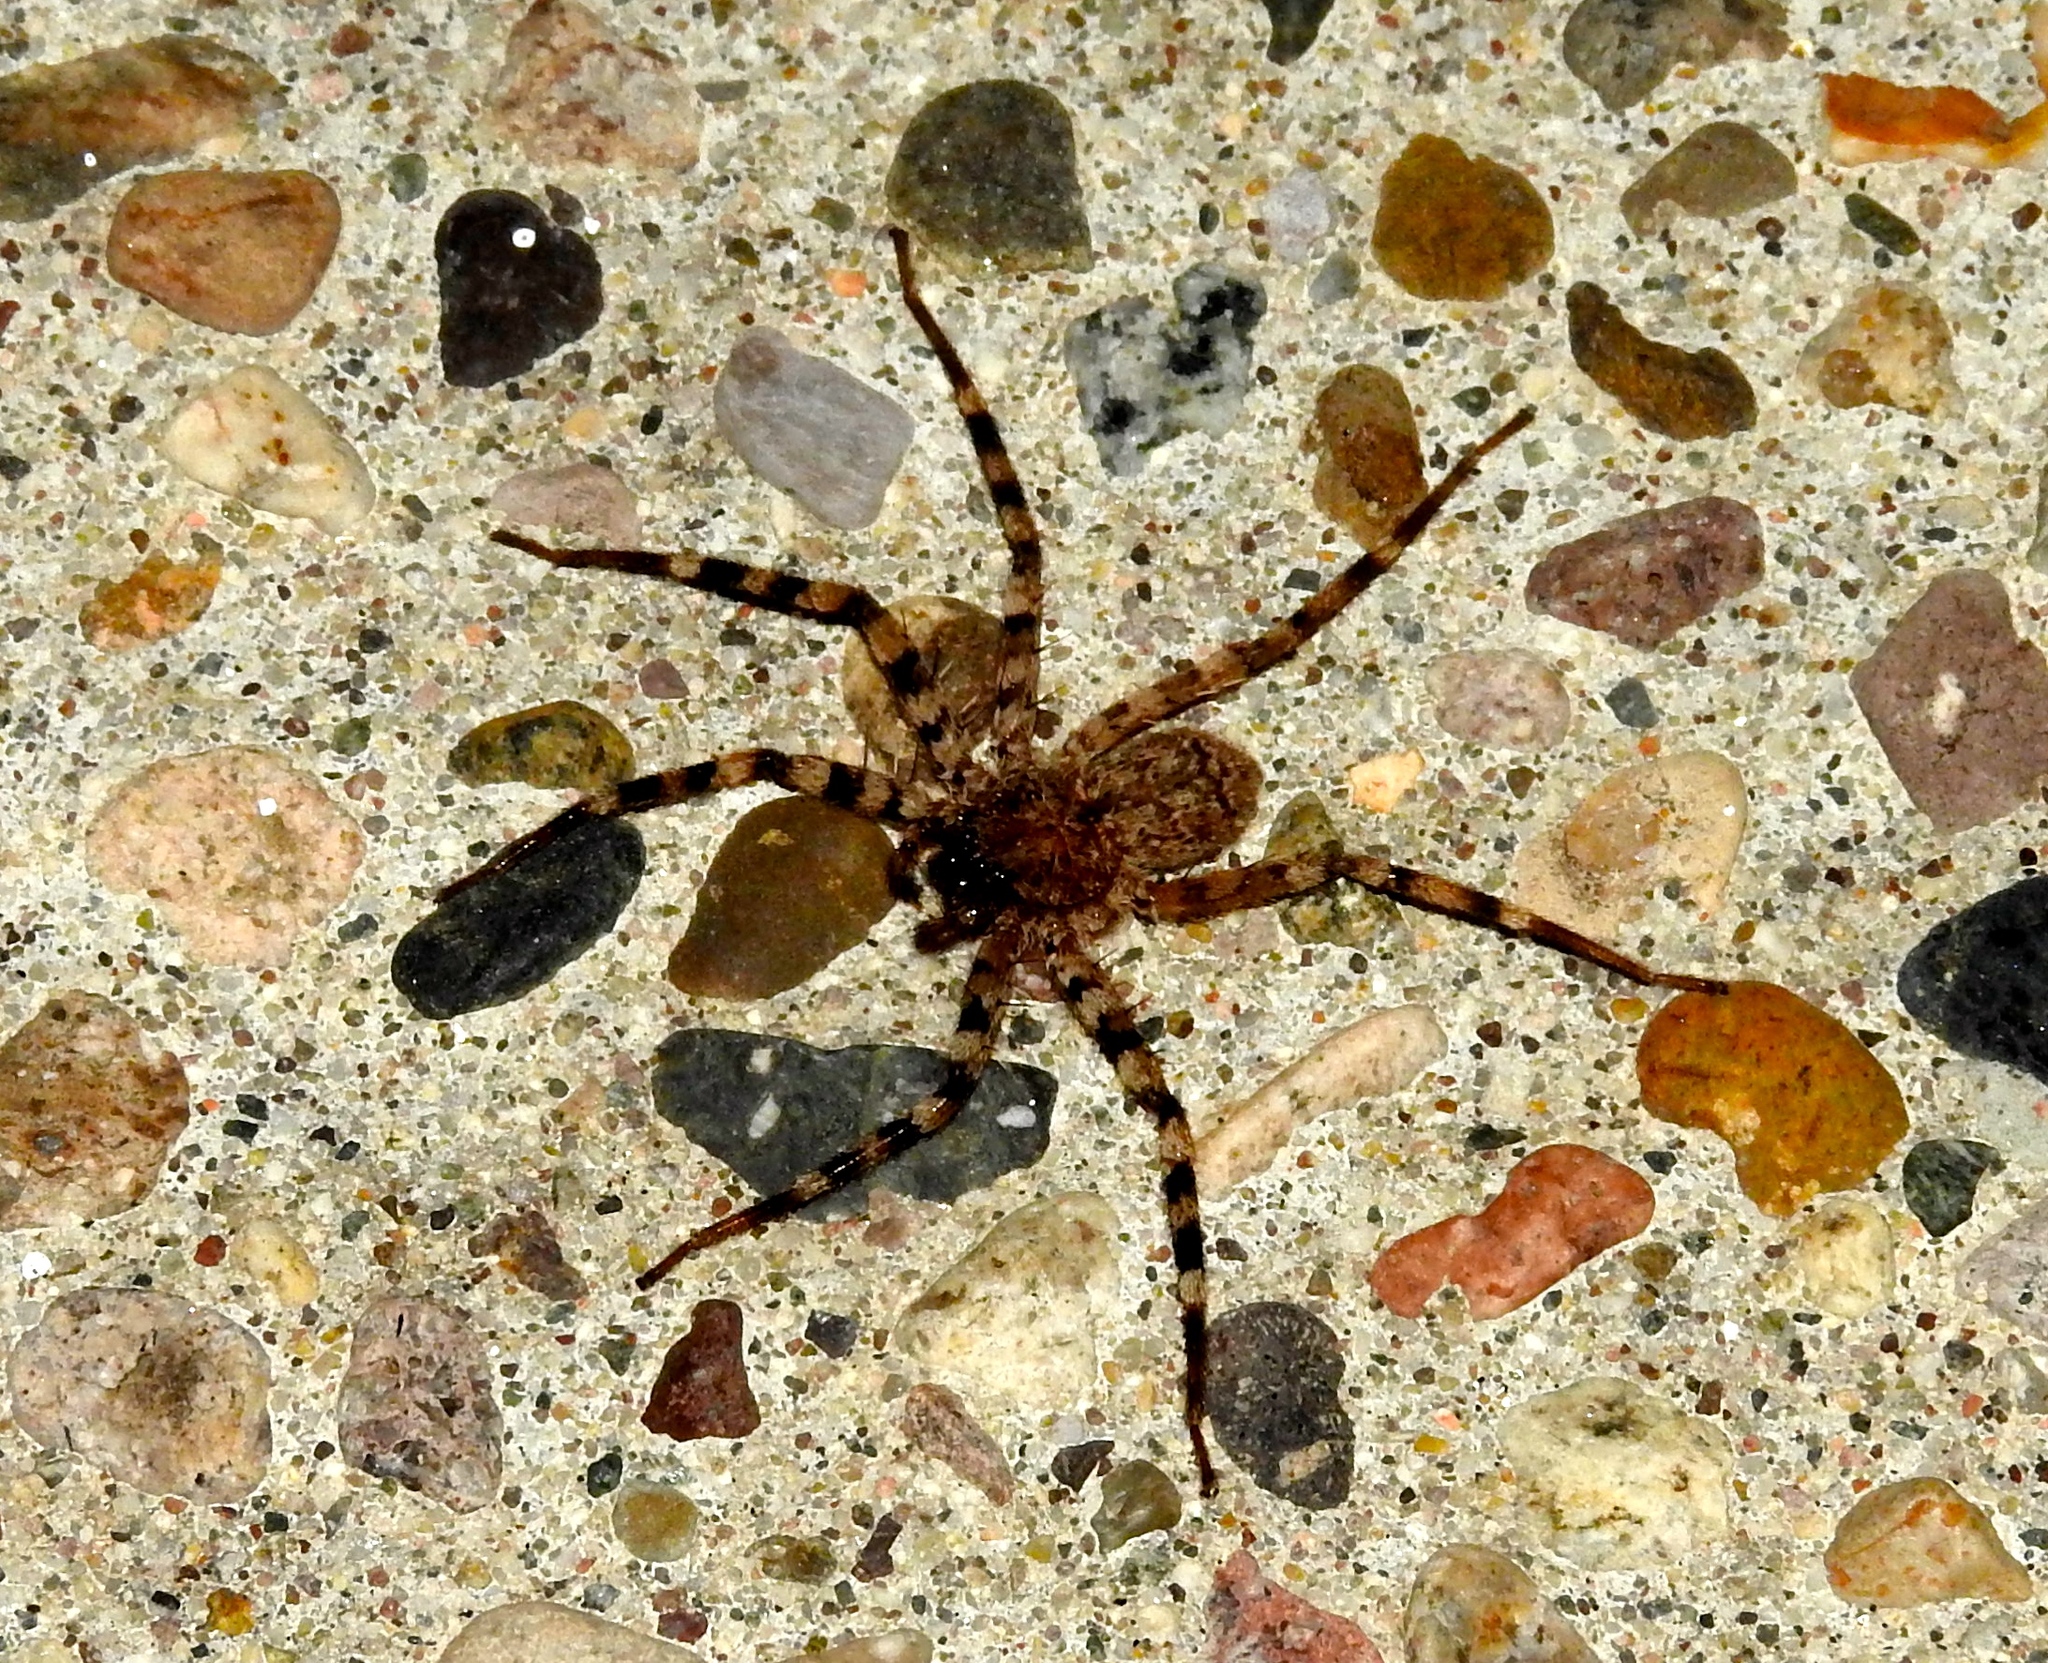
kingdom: Animalia
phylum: Arthropoda
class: Arachnida
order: Araneae
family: Selenopidae
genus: Selenops
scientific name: Selenops
